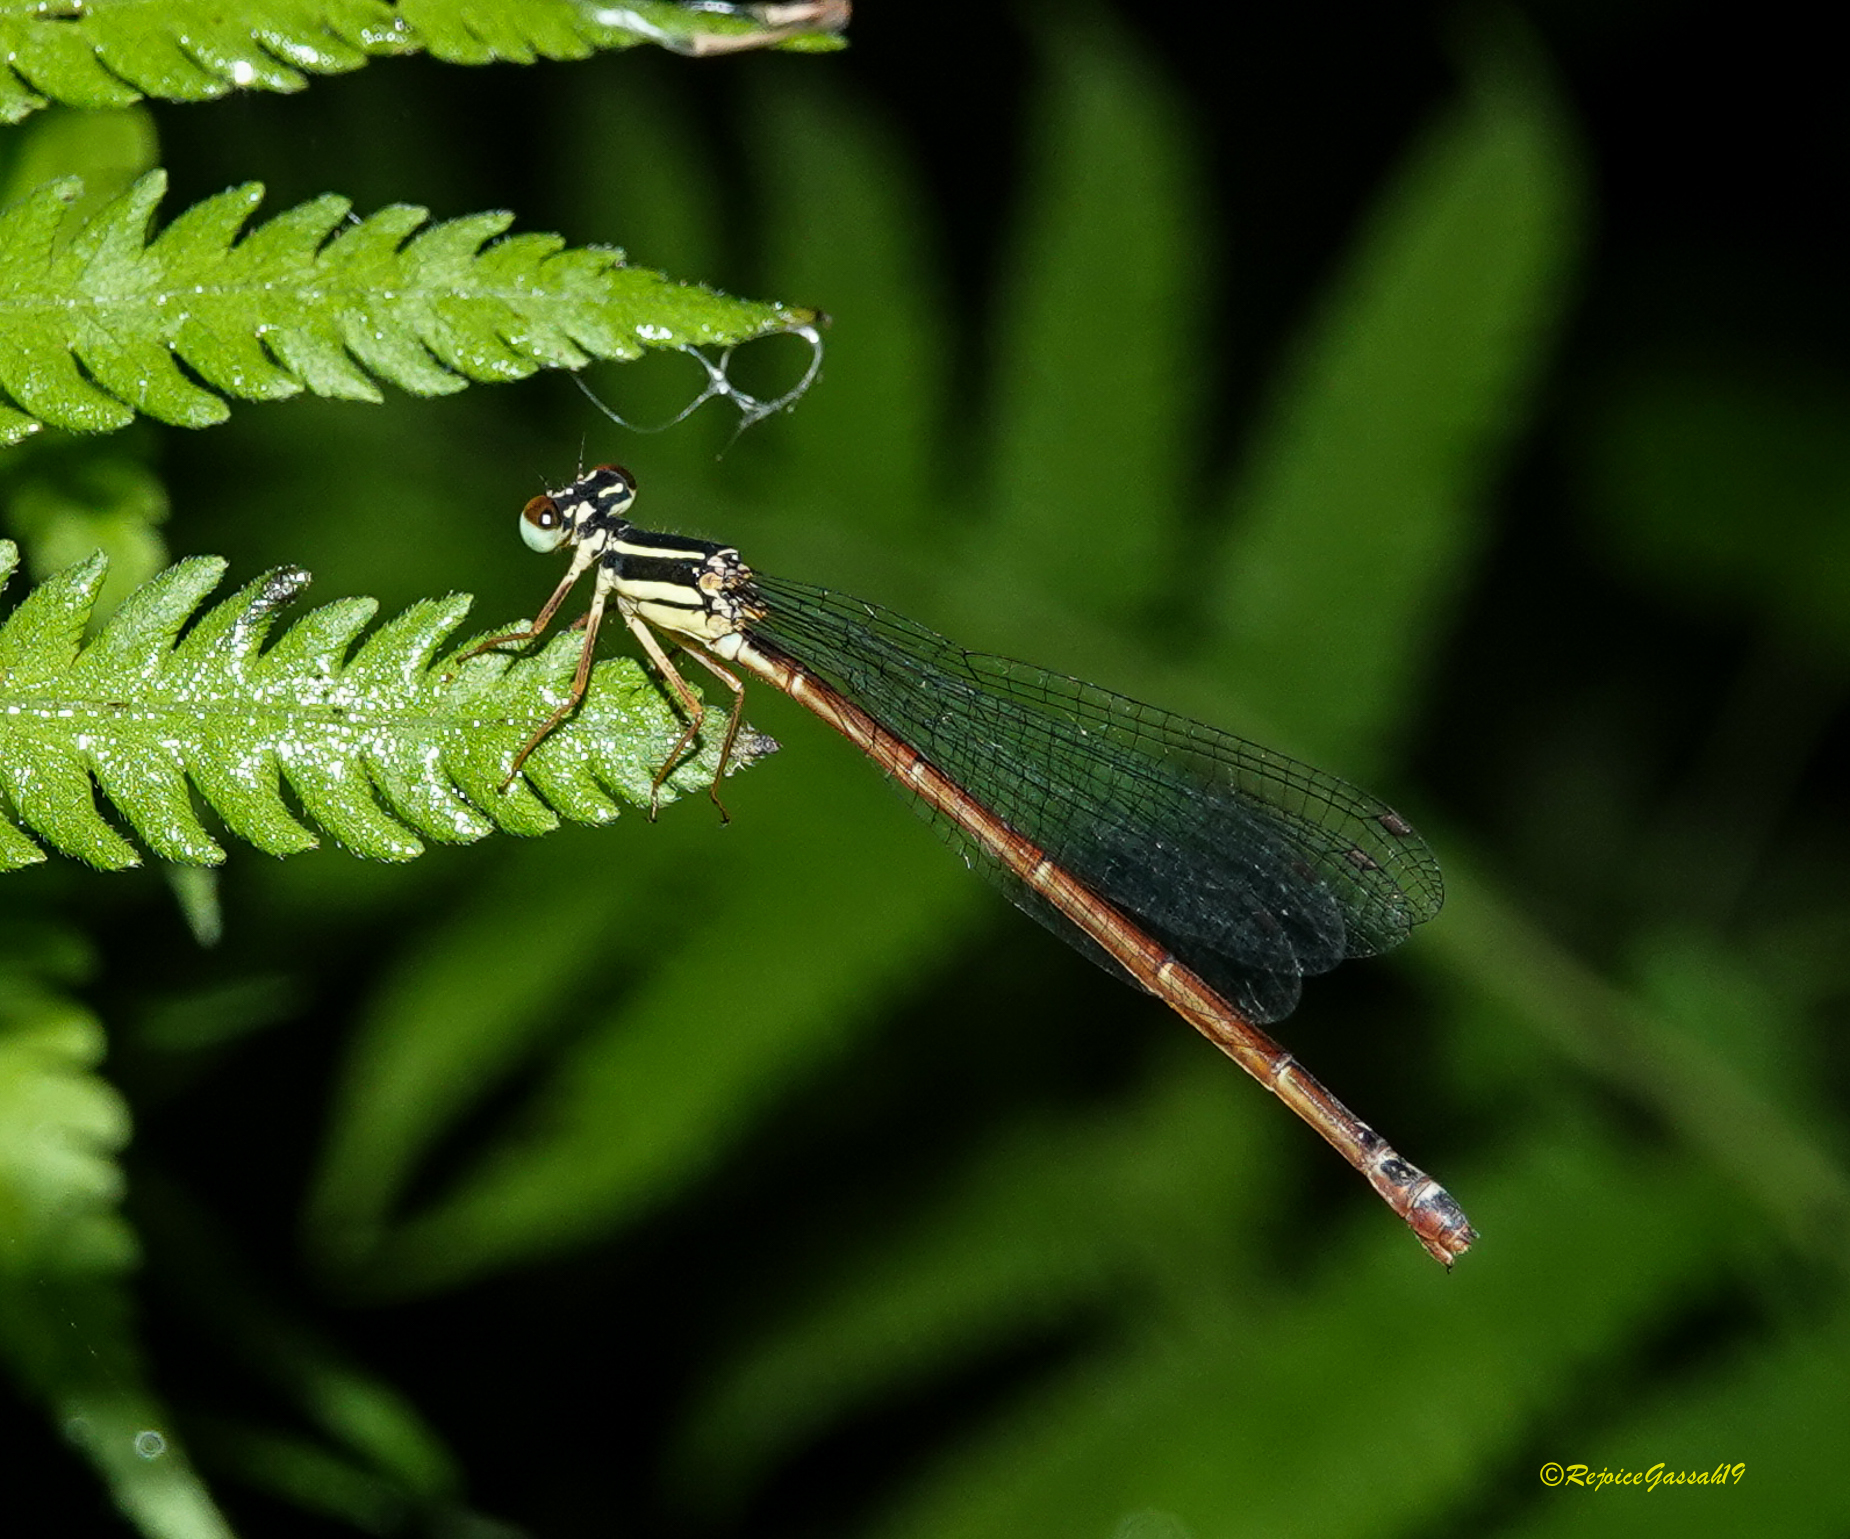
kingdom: Animalia
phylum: Arthropoda
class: Insecta
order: Odonata
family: Platycnemididae
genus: Calicnemia
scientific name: Calicnemia eximia
